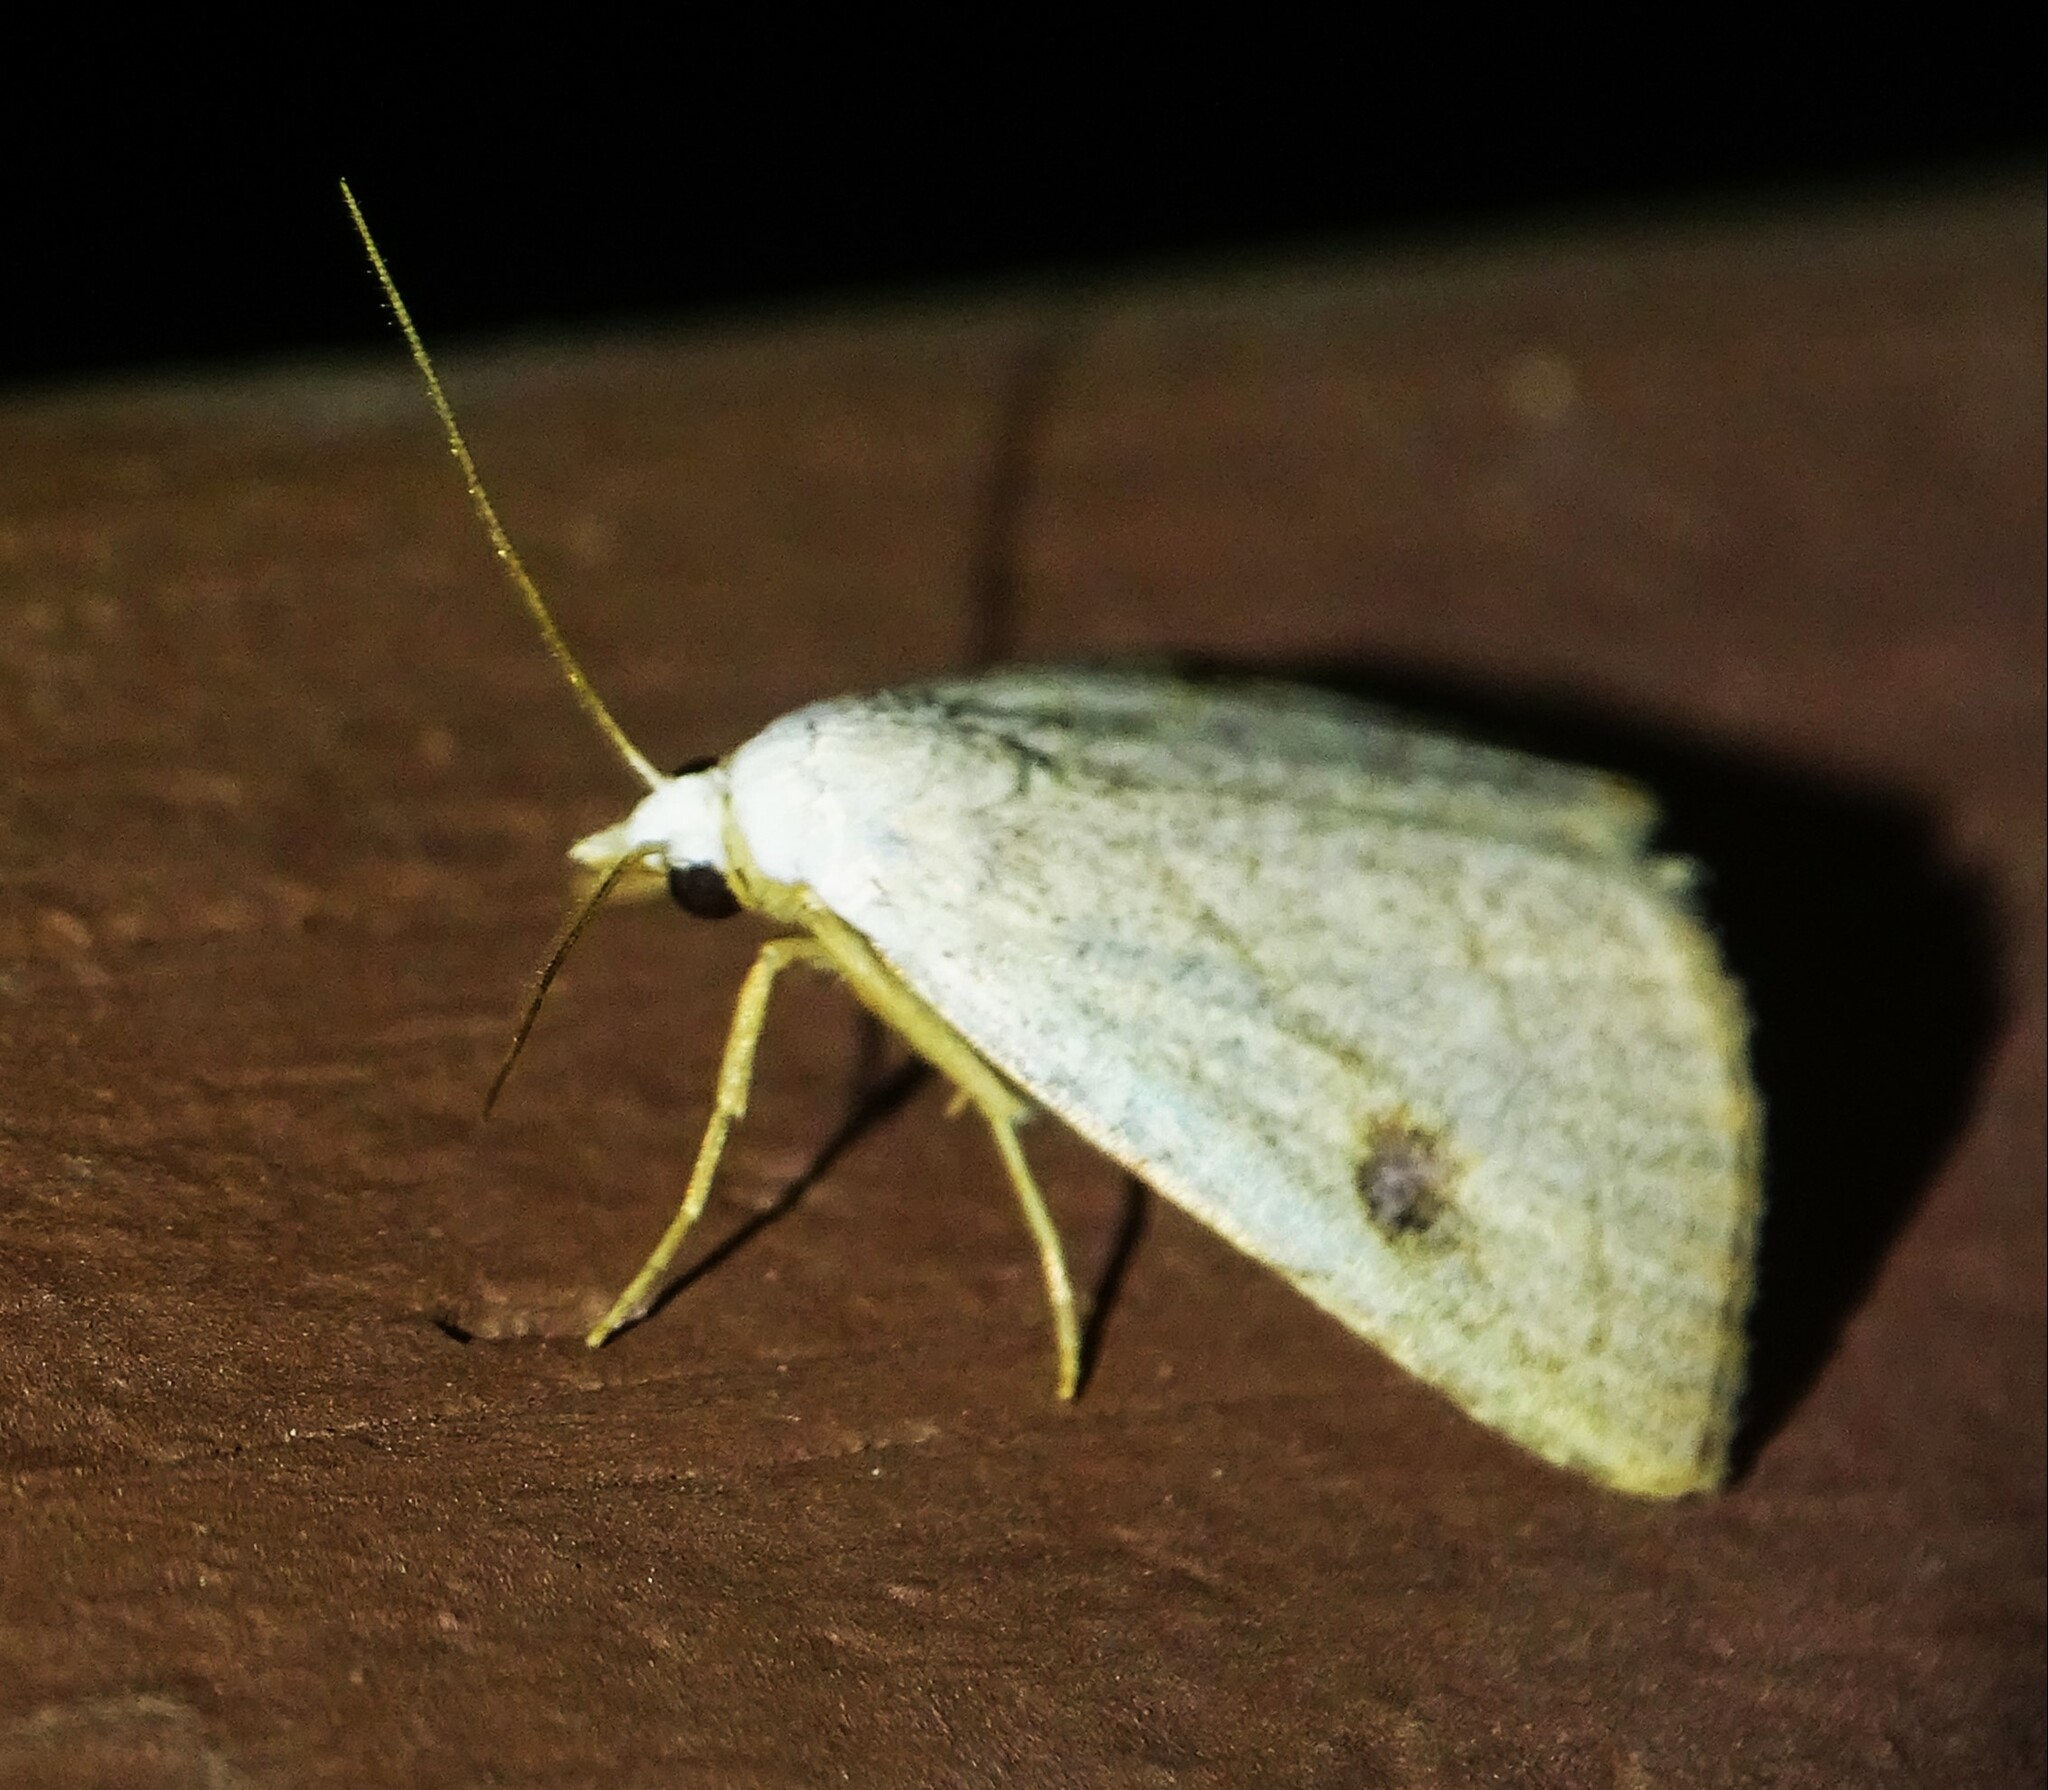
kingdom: Animalia
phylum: Arthropoda
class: Insecta
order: Lepidoptera
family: Erebidae
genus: Rivula
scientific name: Rivula propinqualis
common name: Spotted grass moth
